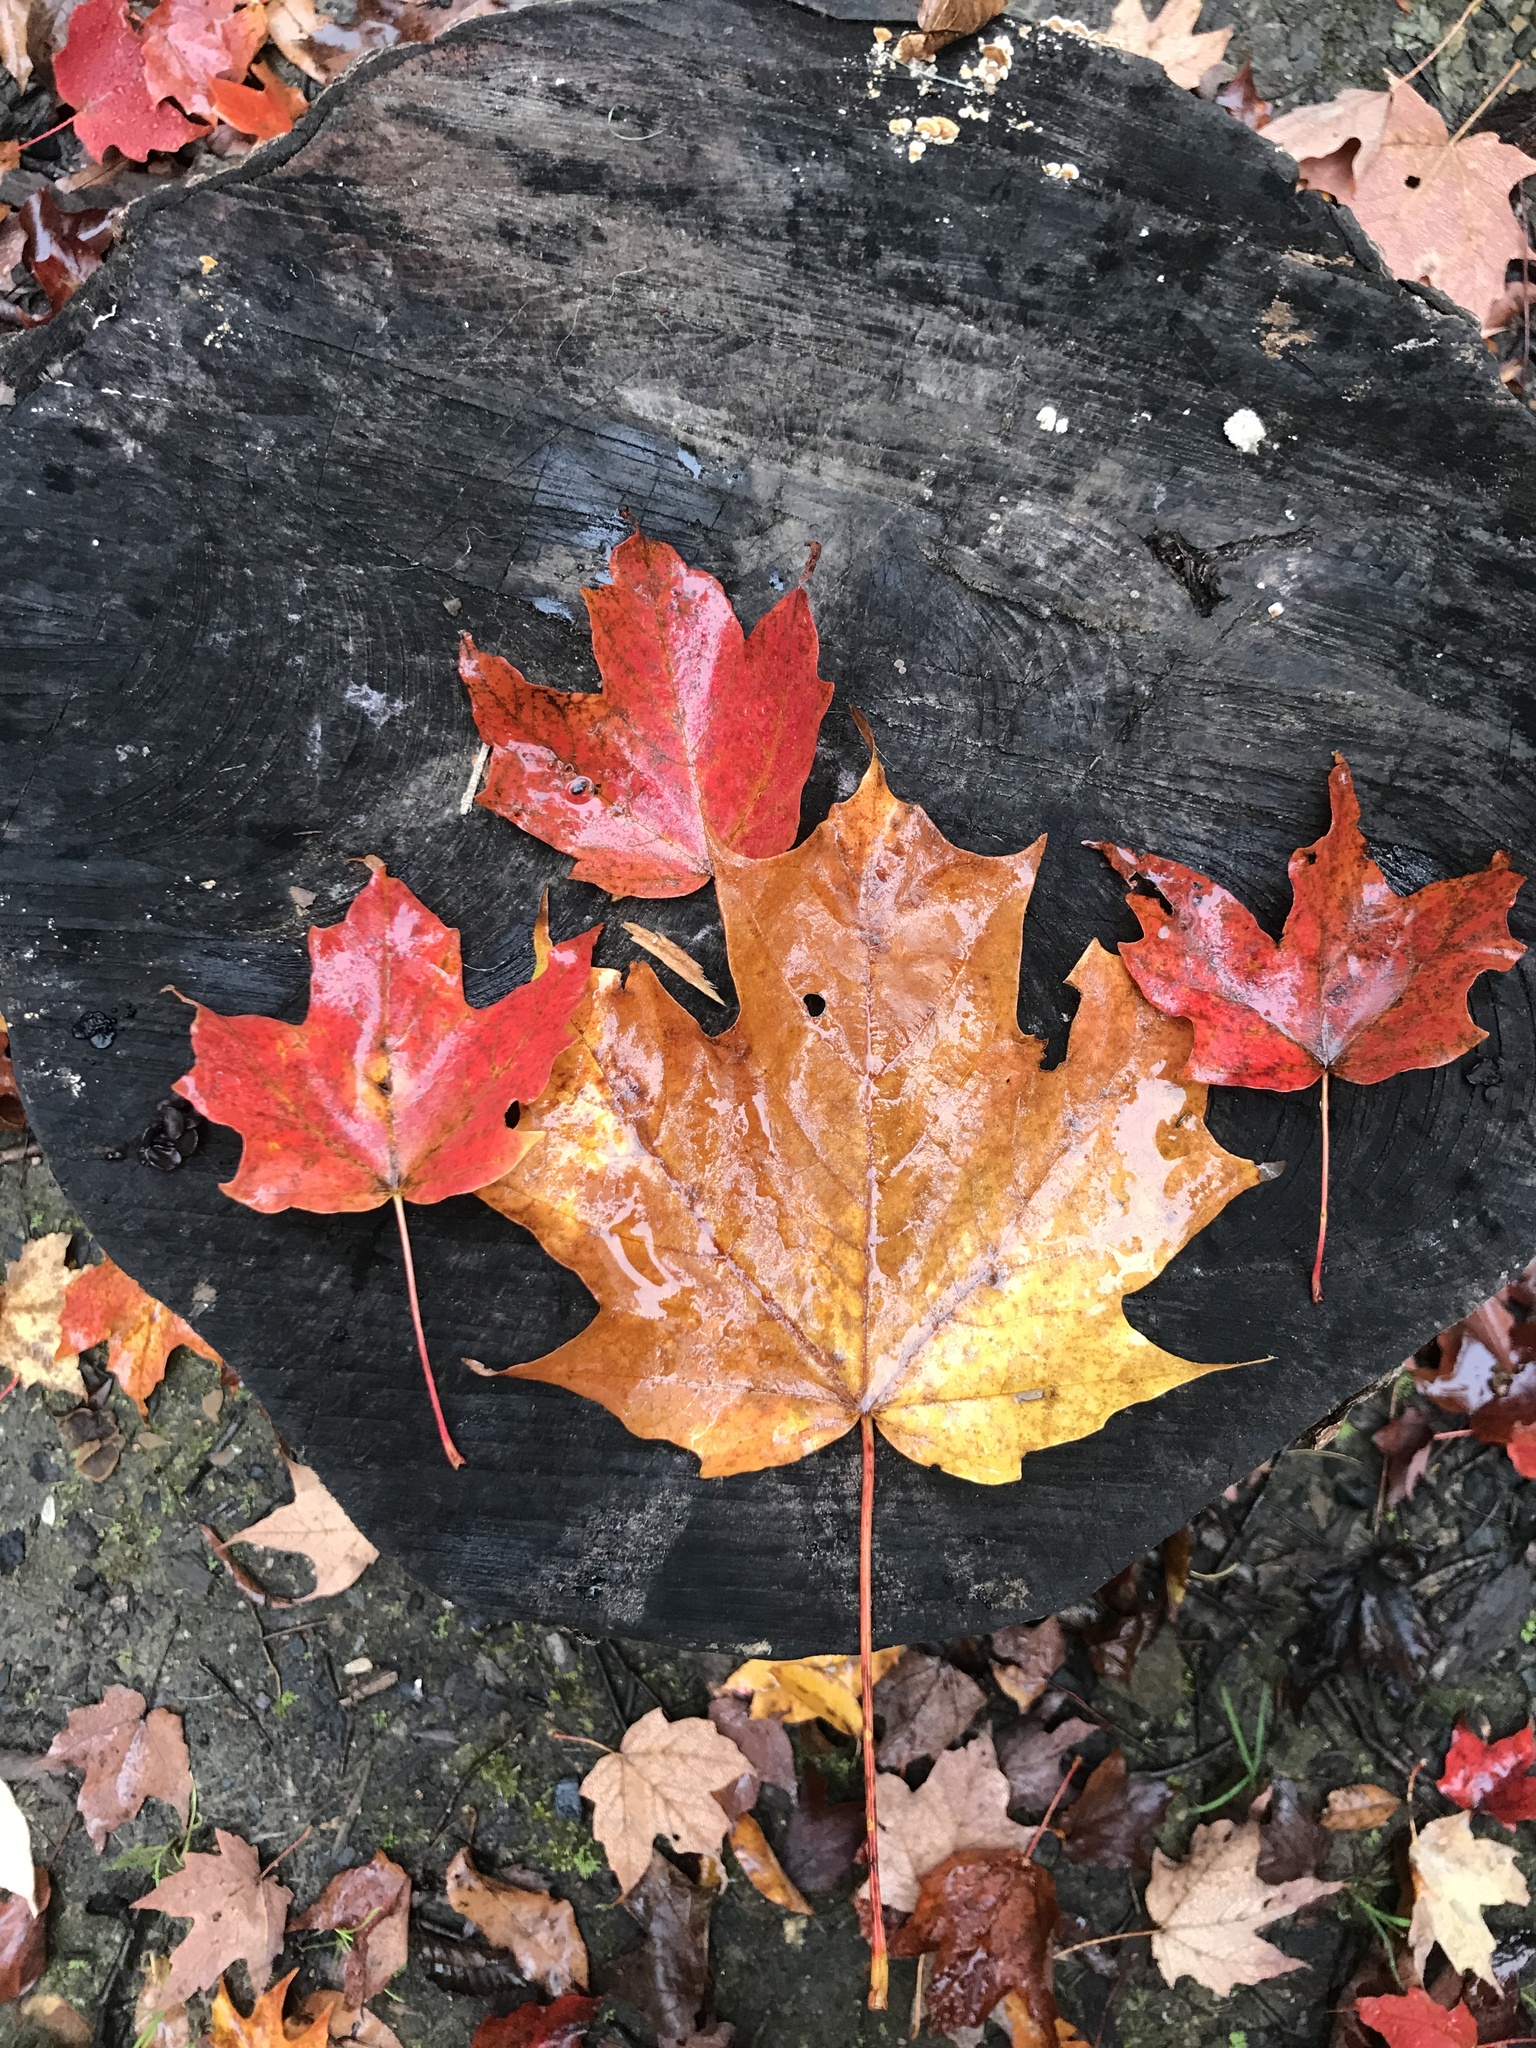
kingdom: Plantae
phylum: Tracheophyta
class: Magnoliopsida
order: Sapindales
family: Sapindaceae
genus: Acer
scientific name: Acer saccharum
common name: Sugar maple
